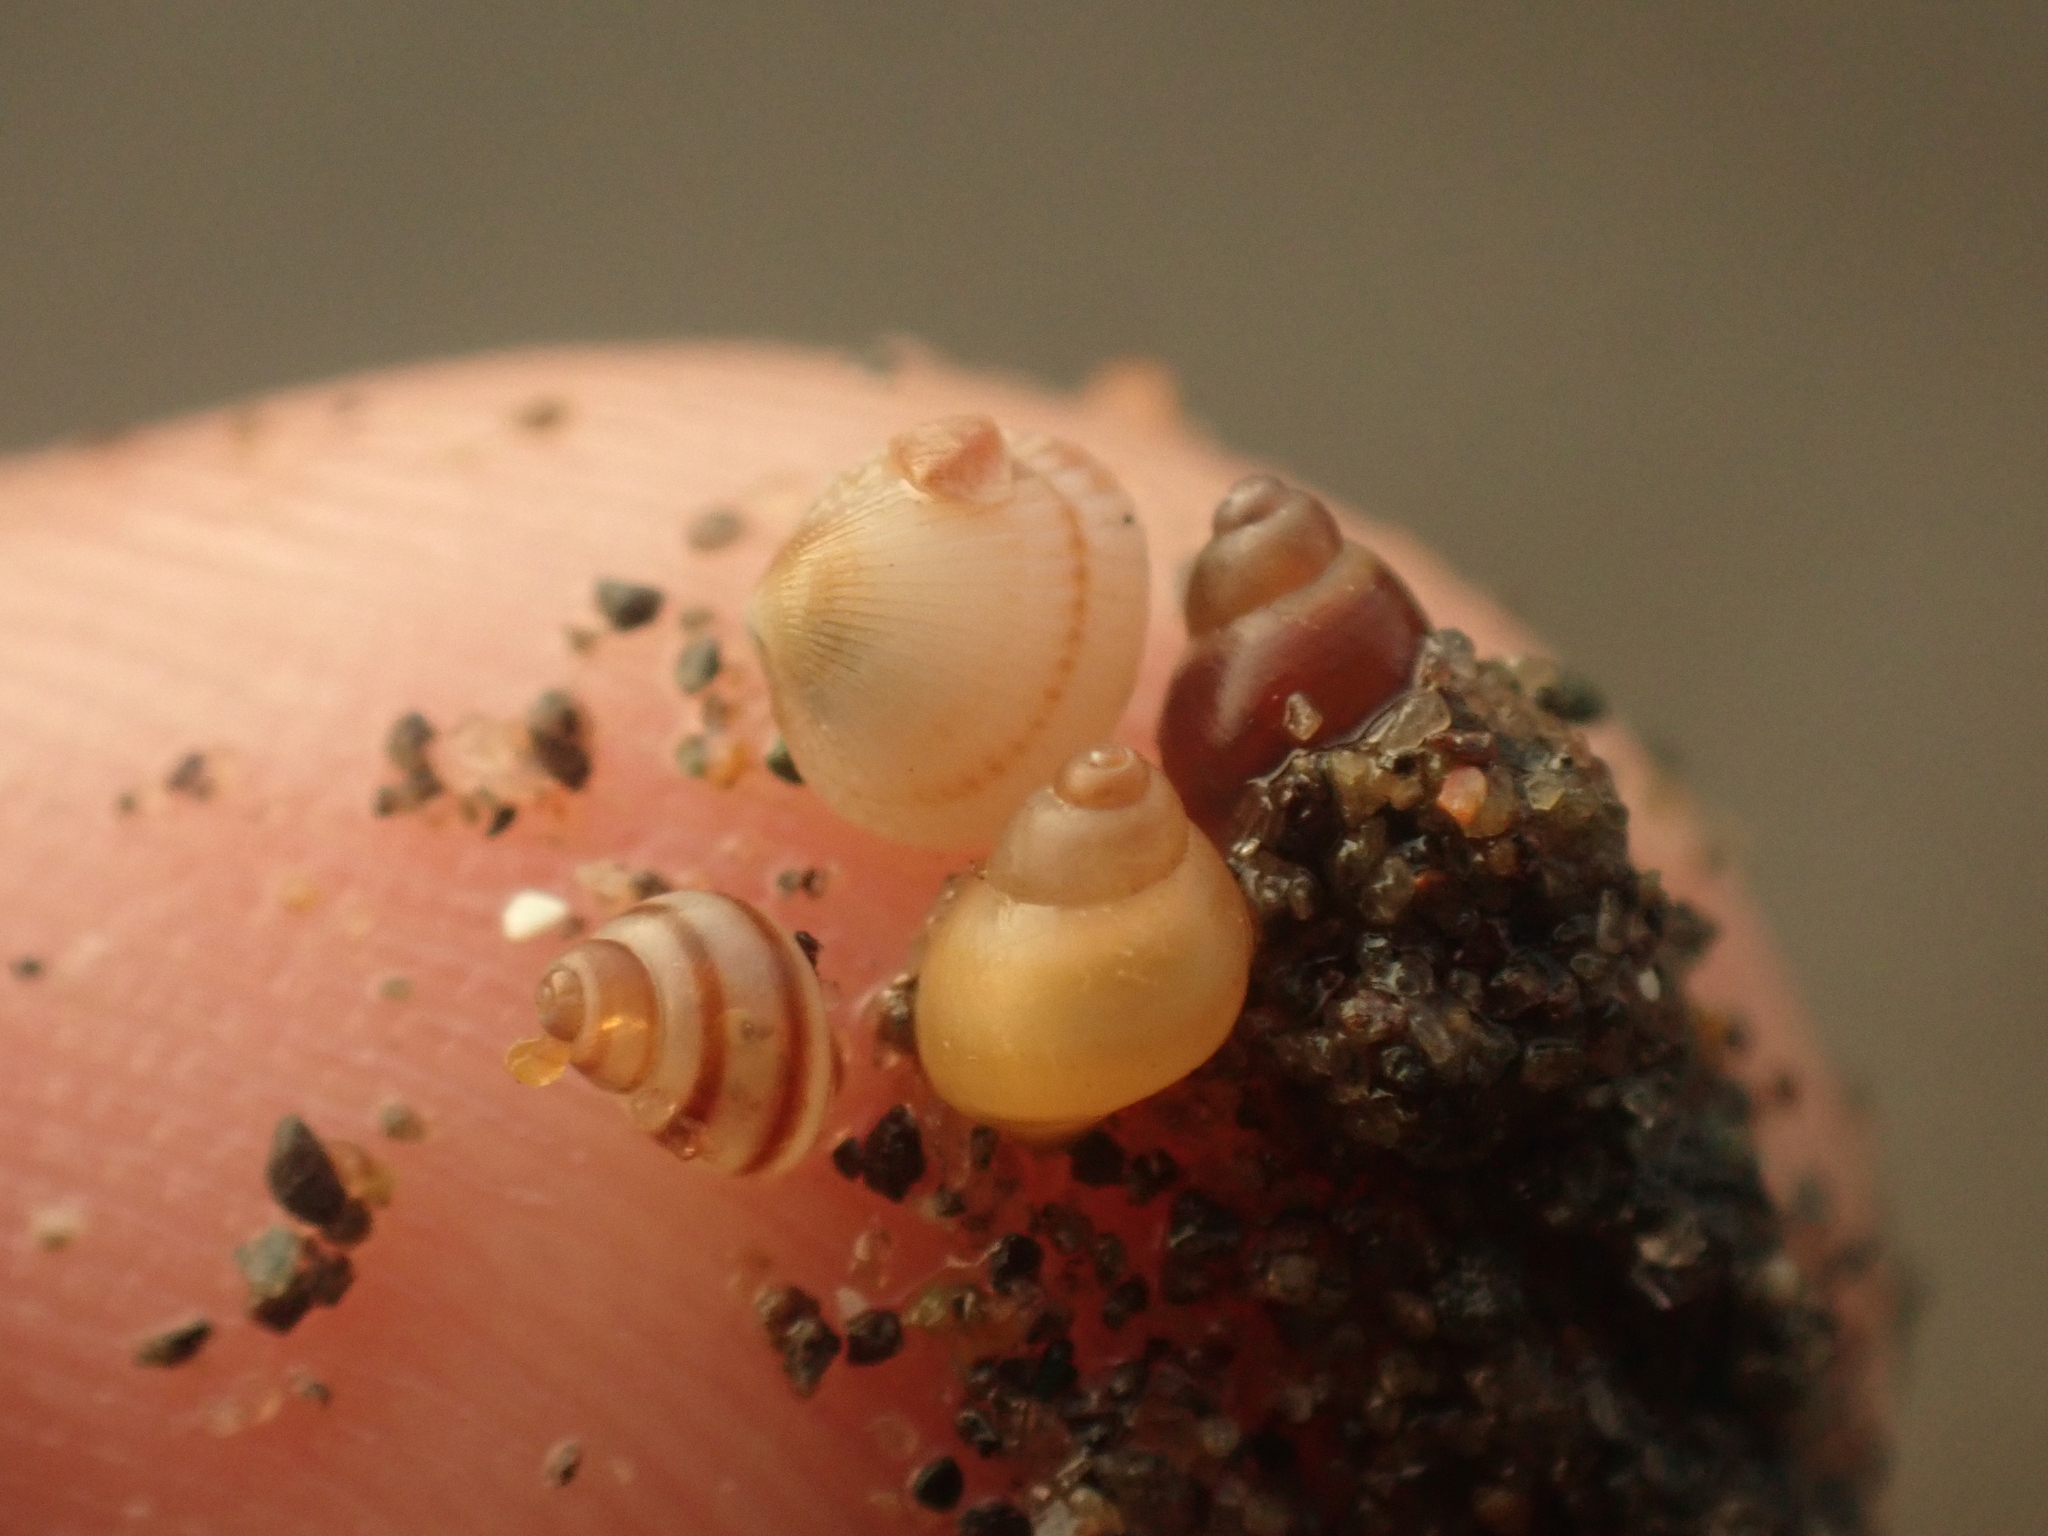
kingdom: Animalia
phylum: Mollusca
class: Gastropoda
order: Littorinimorpha
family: Littorinidae
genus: Lacuna
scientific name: Lacuna vincta
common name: Banded chink shell
